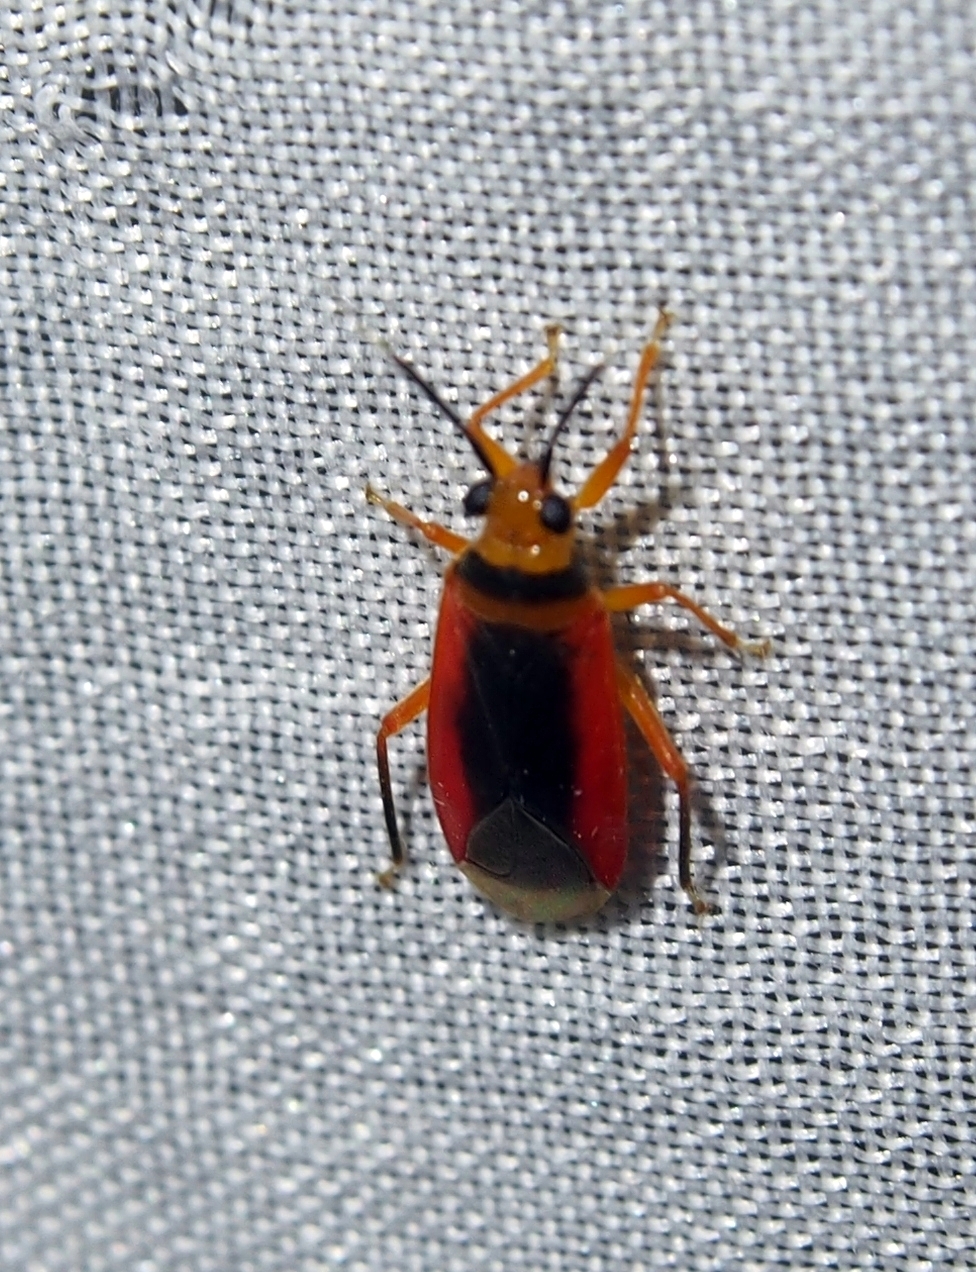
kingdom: Animalia
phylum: Arthropoda
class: Insecta
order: Hemiptera
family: Miridae
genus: Neella
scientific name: Neella fasciata
